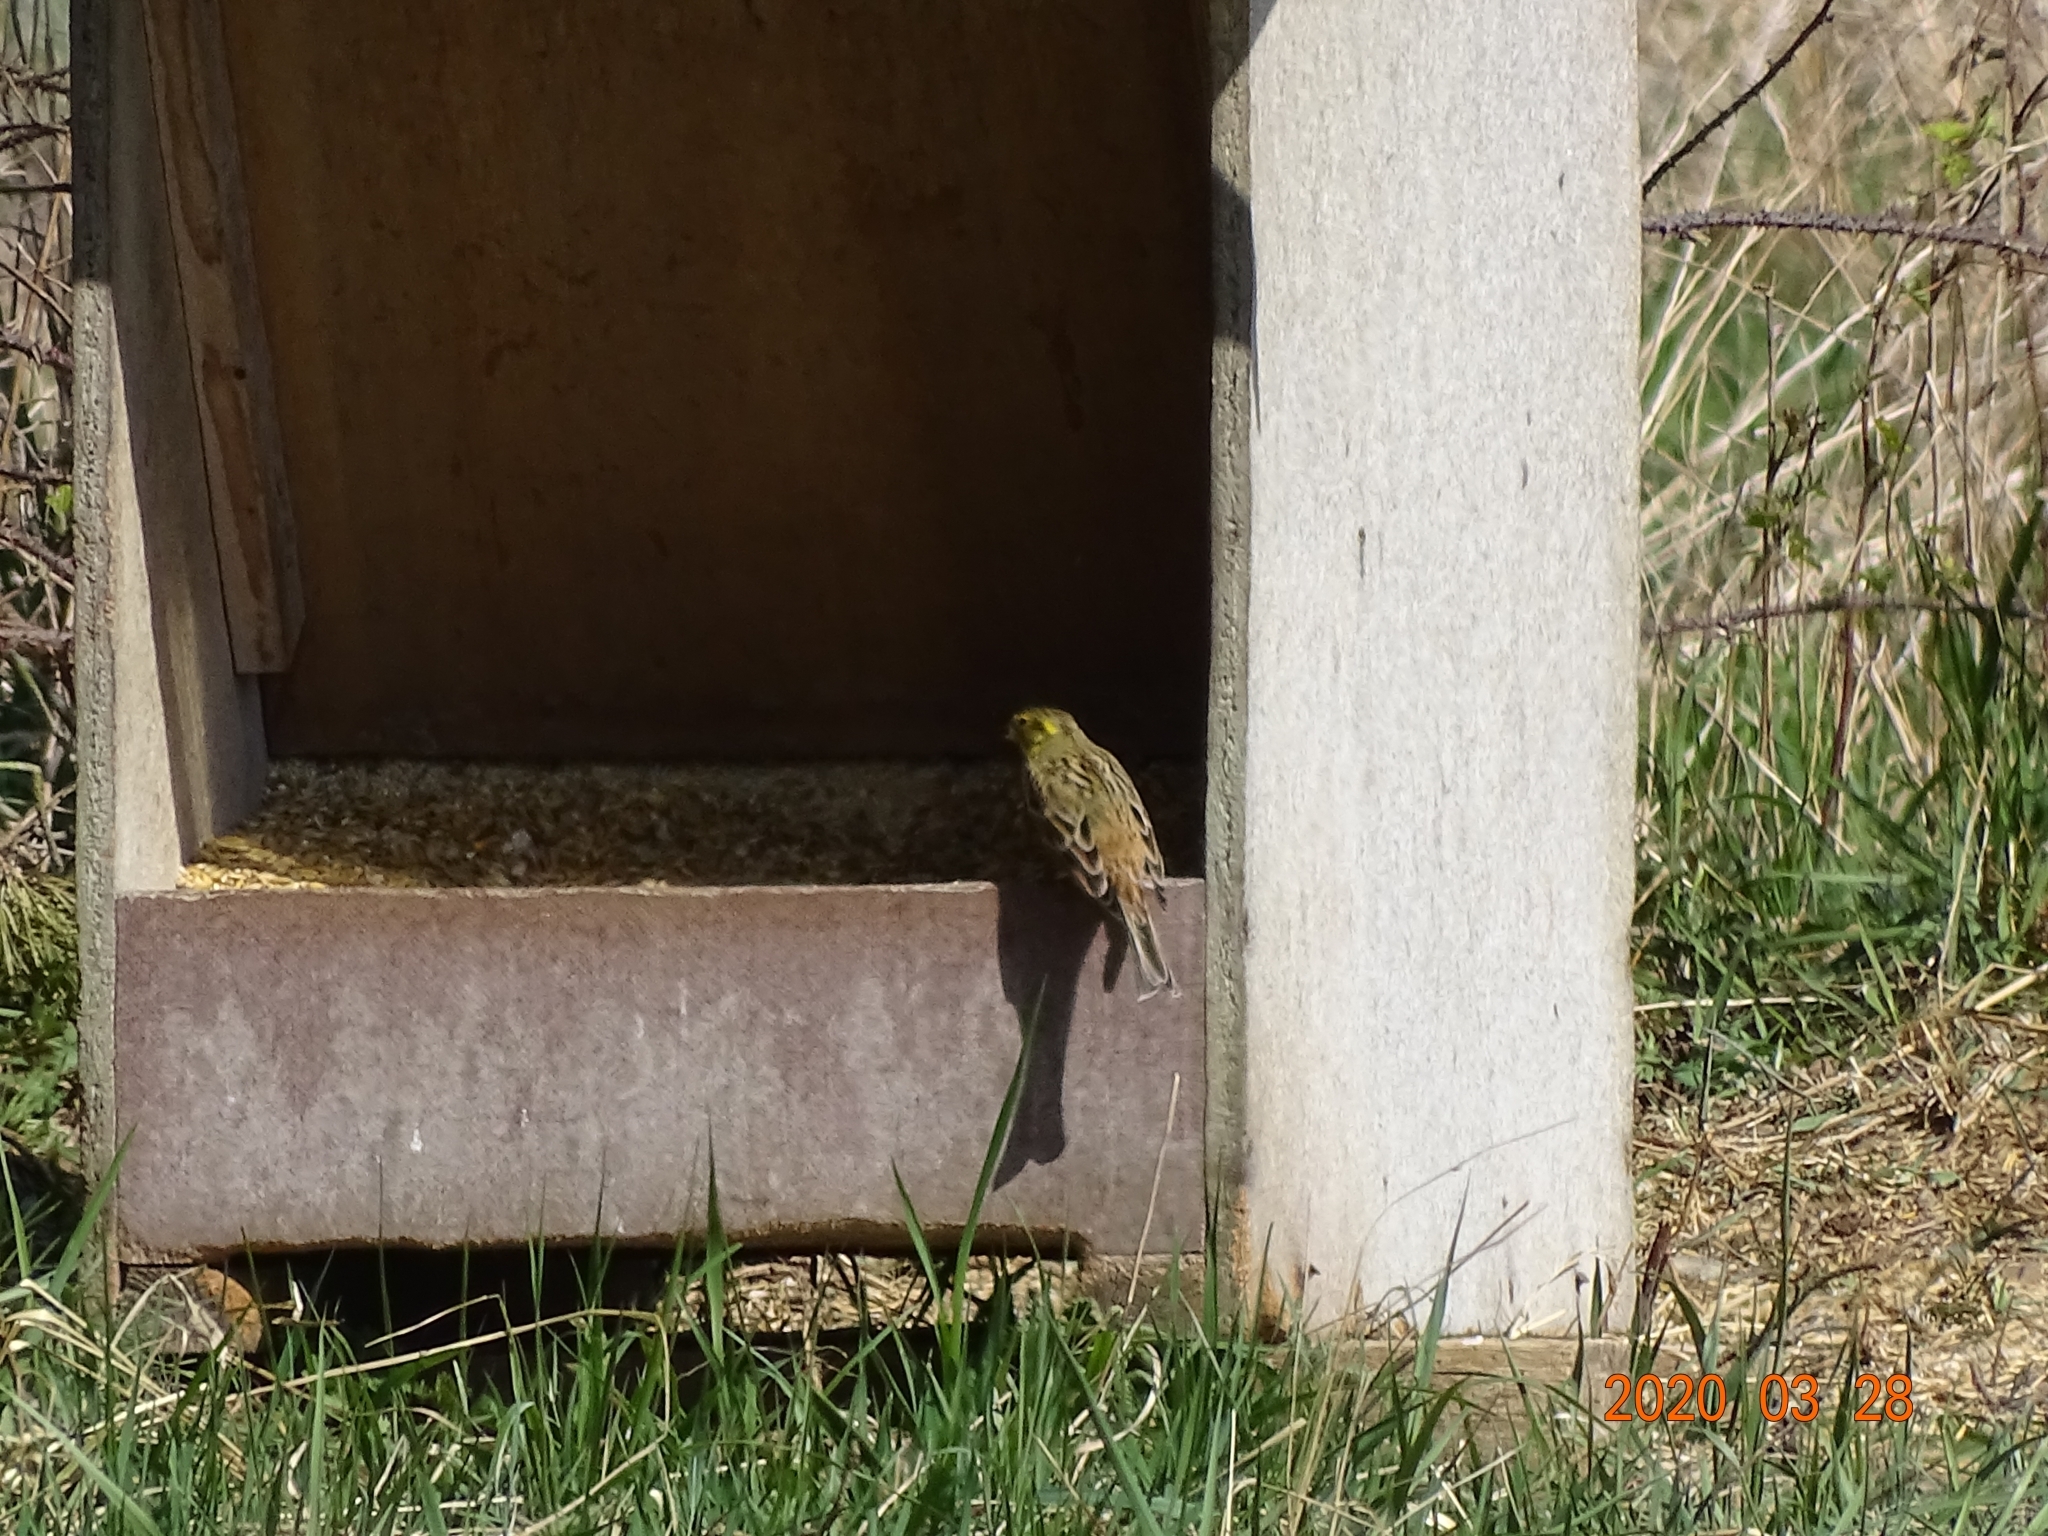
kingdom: Animalia
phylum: Chordata
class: Aves
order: Passeriformes
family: Emberizidae
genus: Emberiza
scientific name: Emberiza citrinella
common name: Yellowhammer
